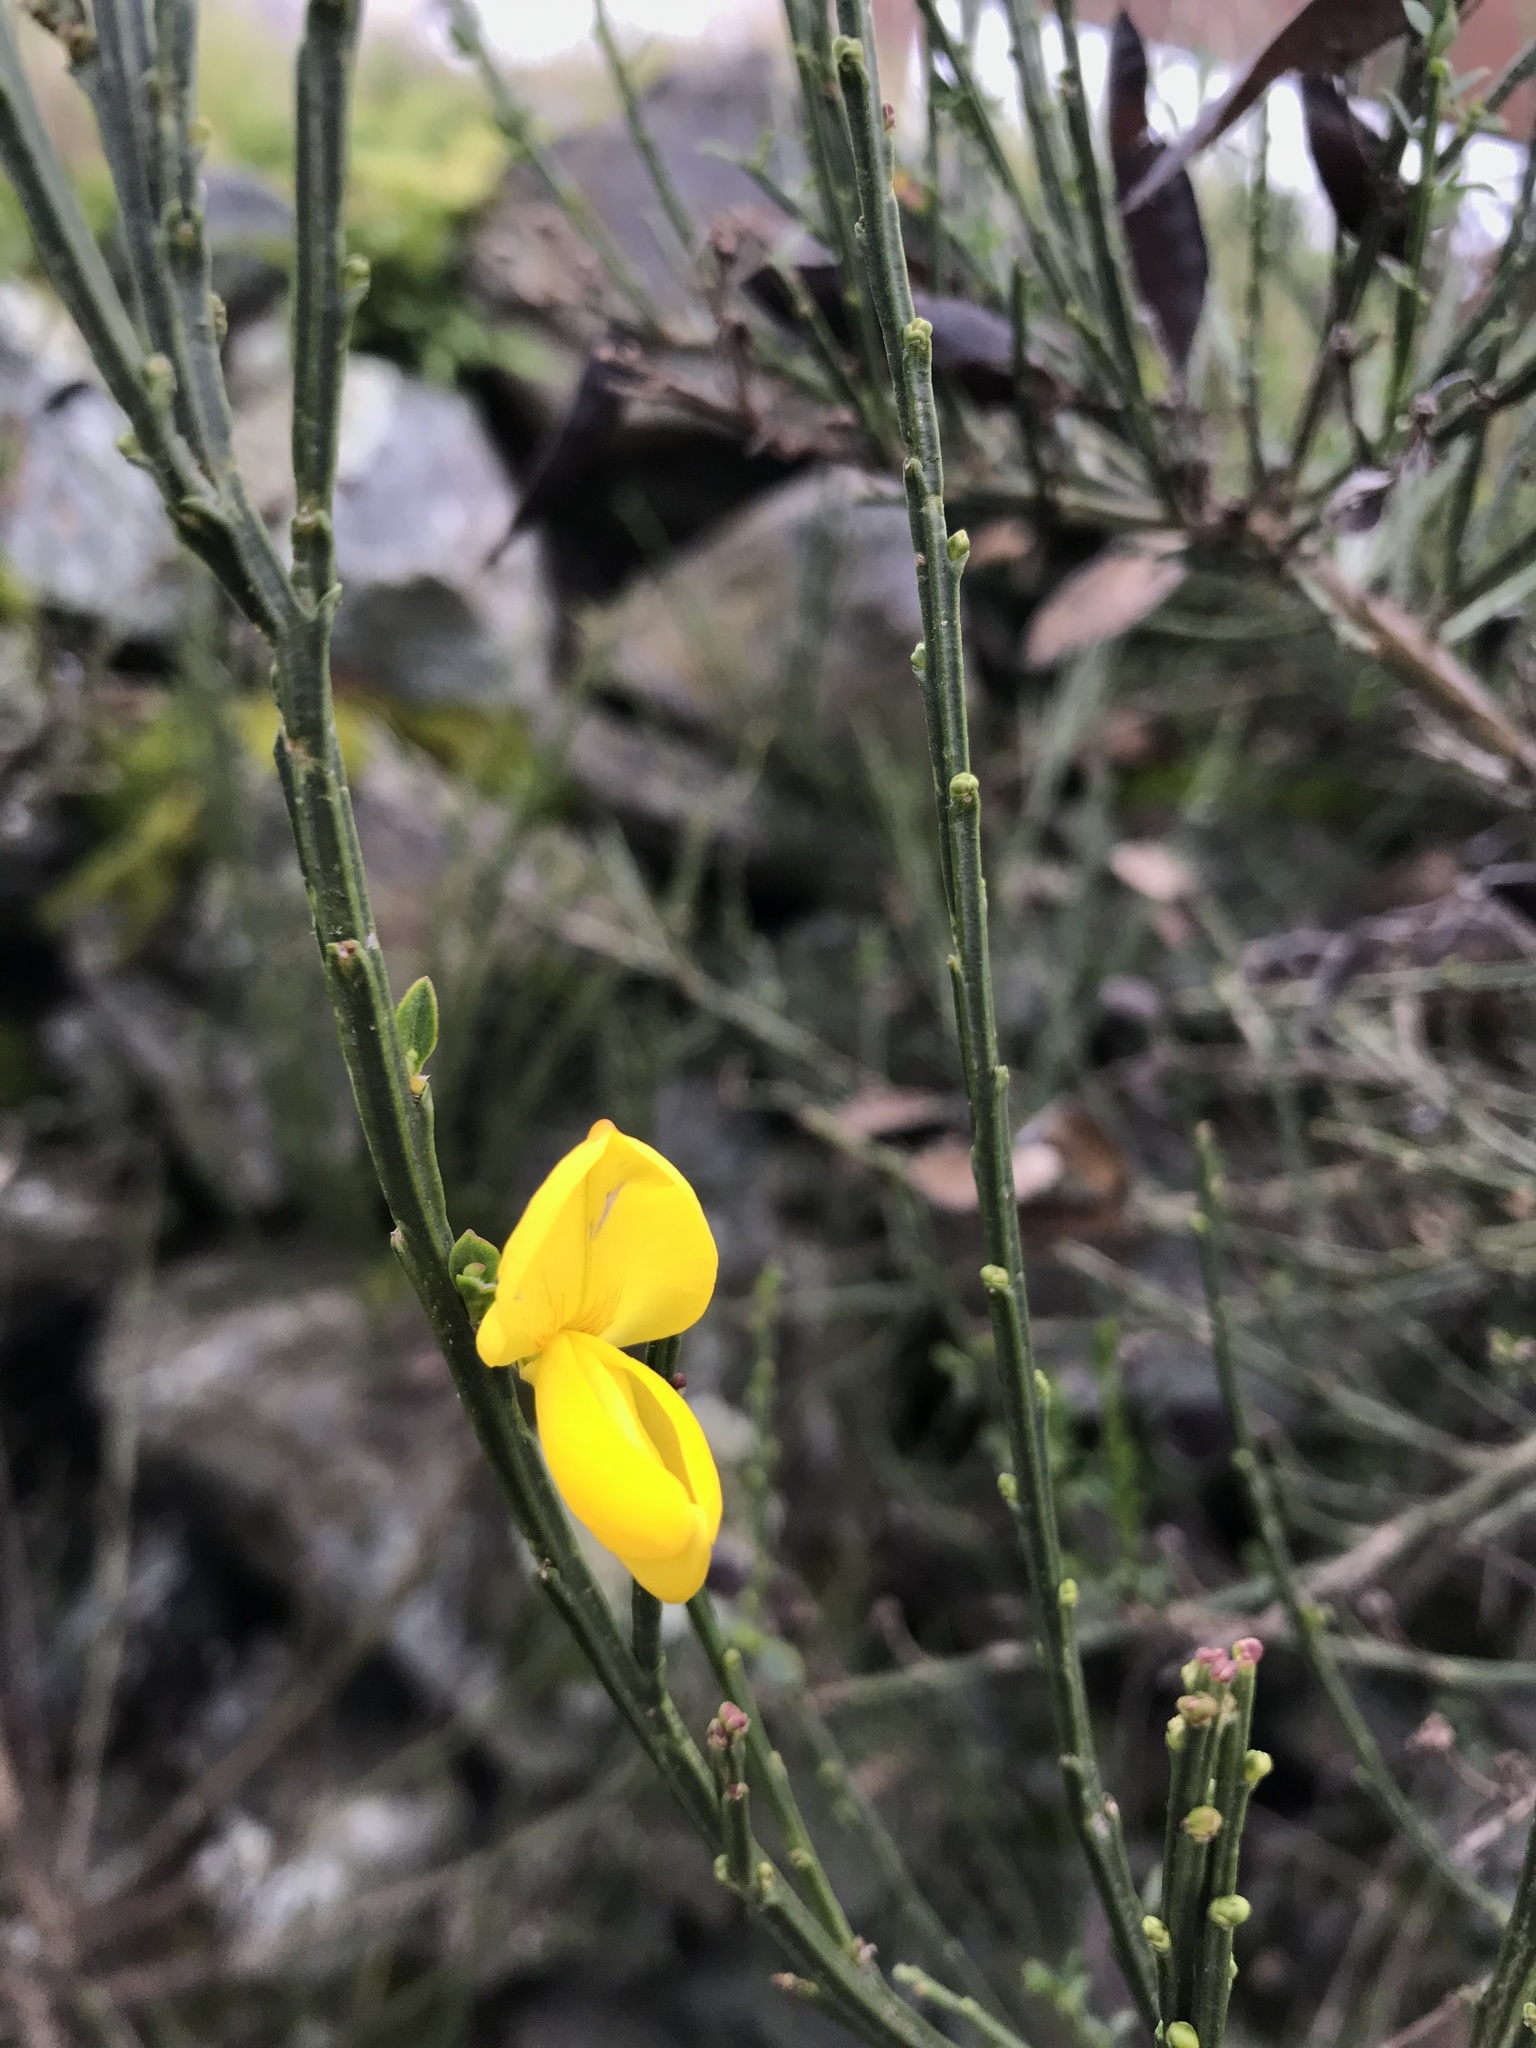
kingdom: Plantae
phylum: Tracheophyta
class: Magnoliopsida
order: Fabales
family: Fabaceae
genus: Cytisus
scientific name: Cytisus scoparius
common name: Scotch broom
